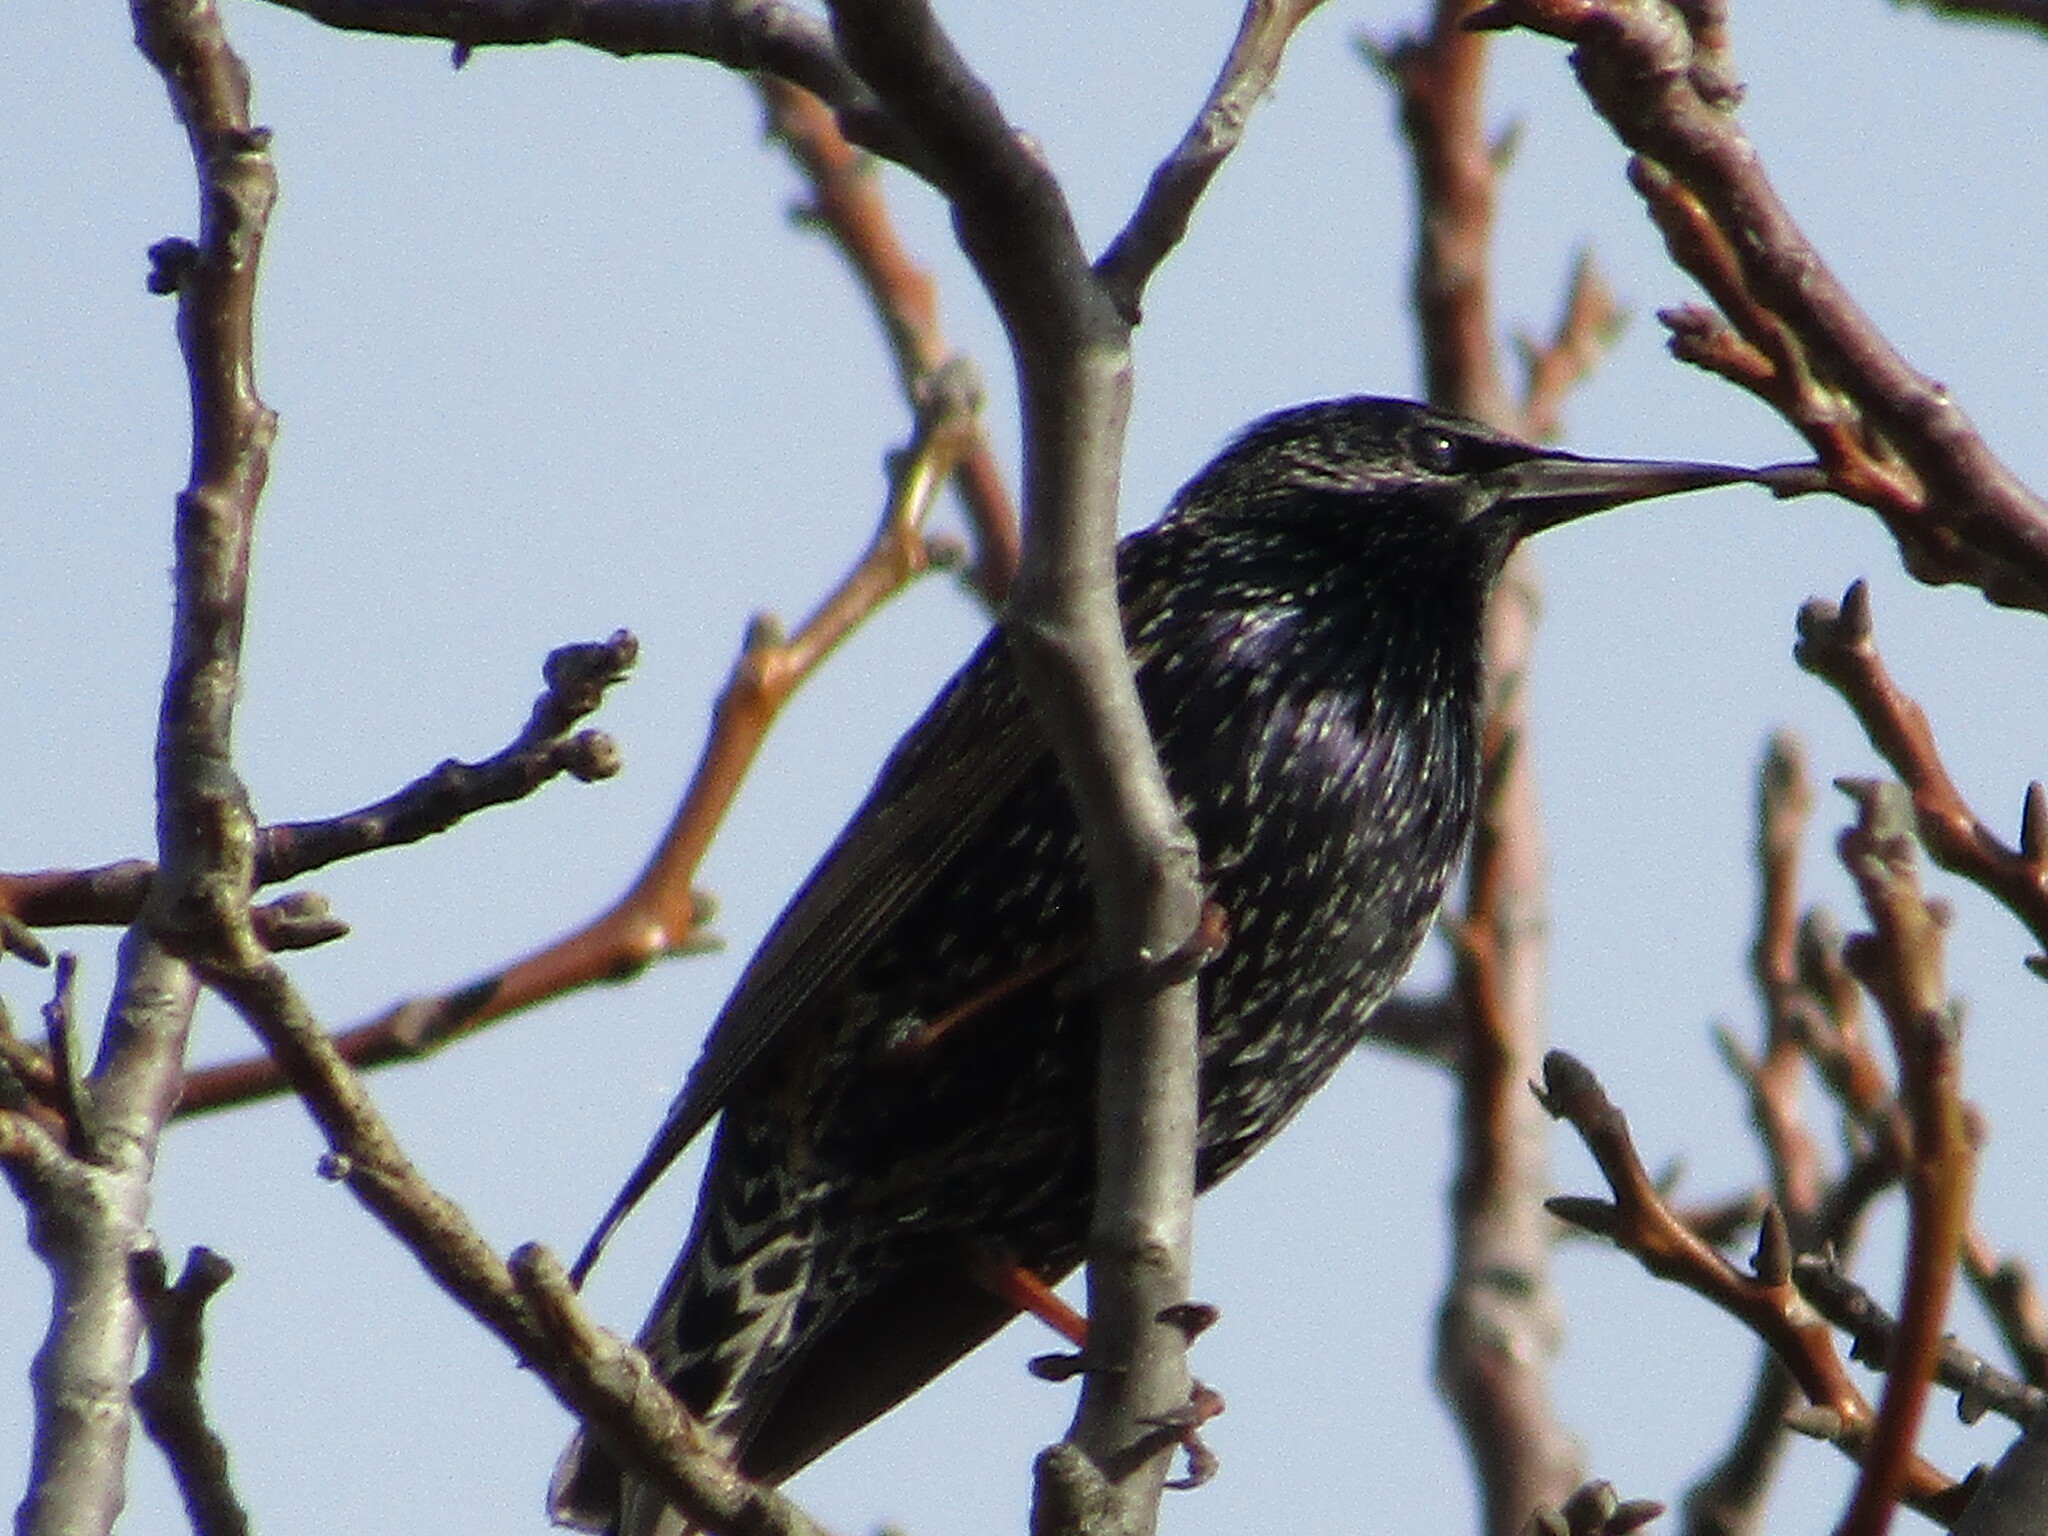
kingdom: Animalia
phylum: Chordata
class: Aves
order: Passeriformes
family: Sturnidae
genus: Sturnus
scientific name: Sturnus vulgaris
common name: Common starling
